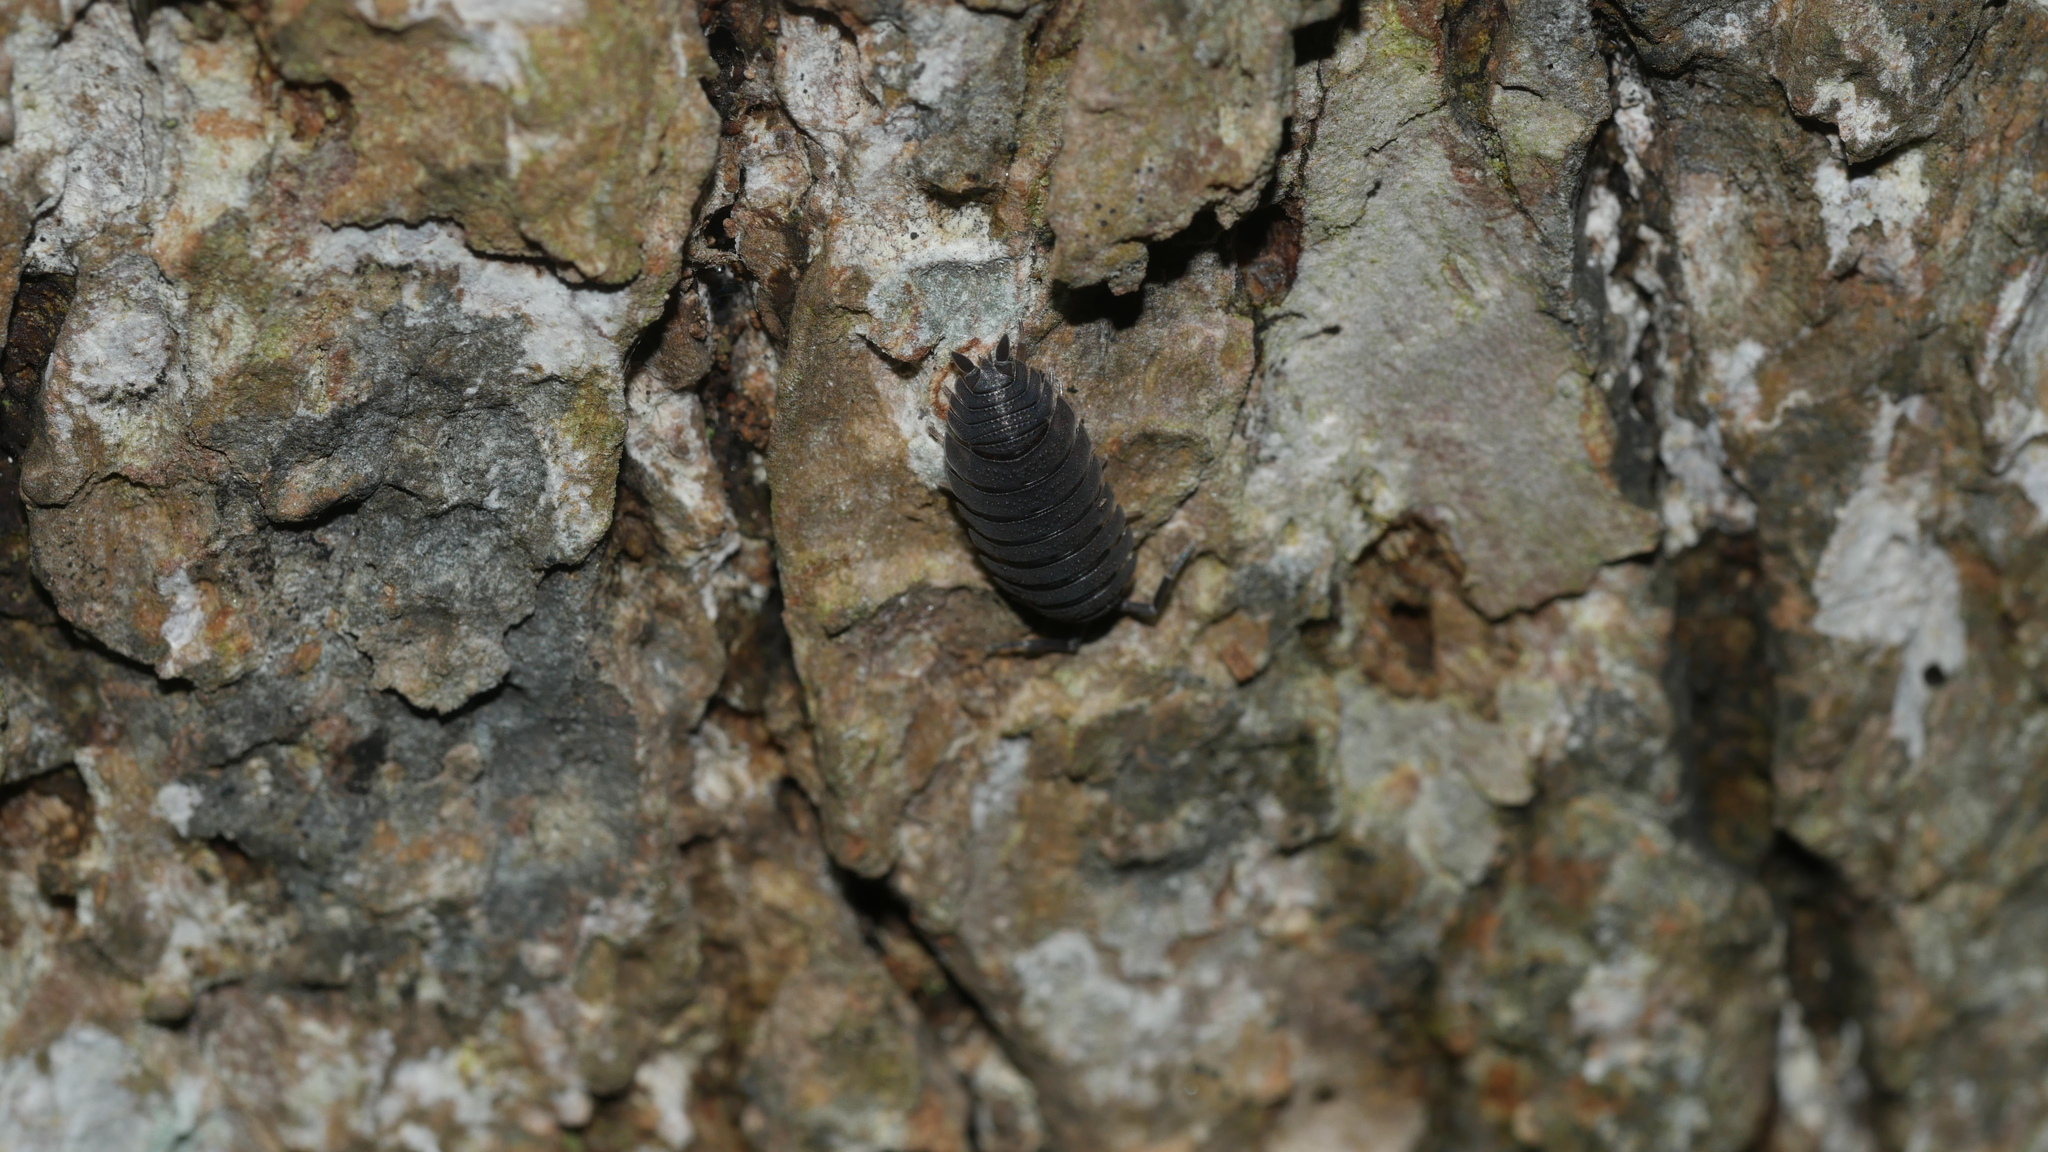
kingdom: Animalia
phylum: Arthropoda
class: Malacostraca
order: Isopoda
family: Porcellionidae
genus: Porcellio
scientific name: Porcellio scaber
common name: Common rough woodlouse
